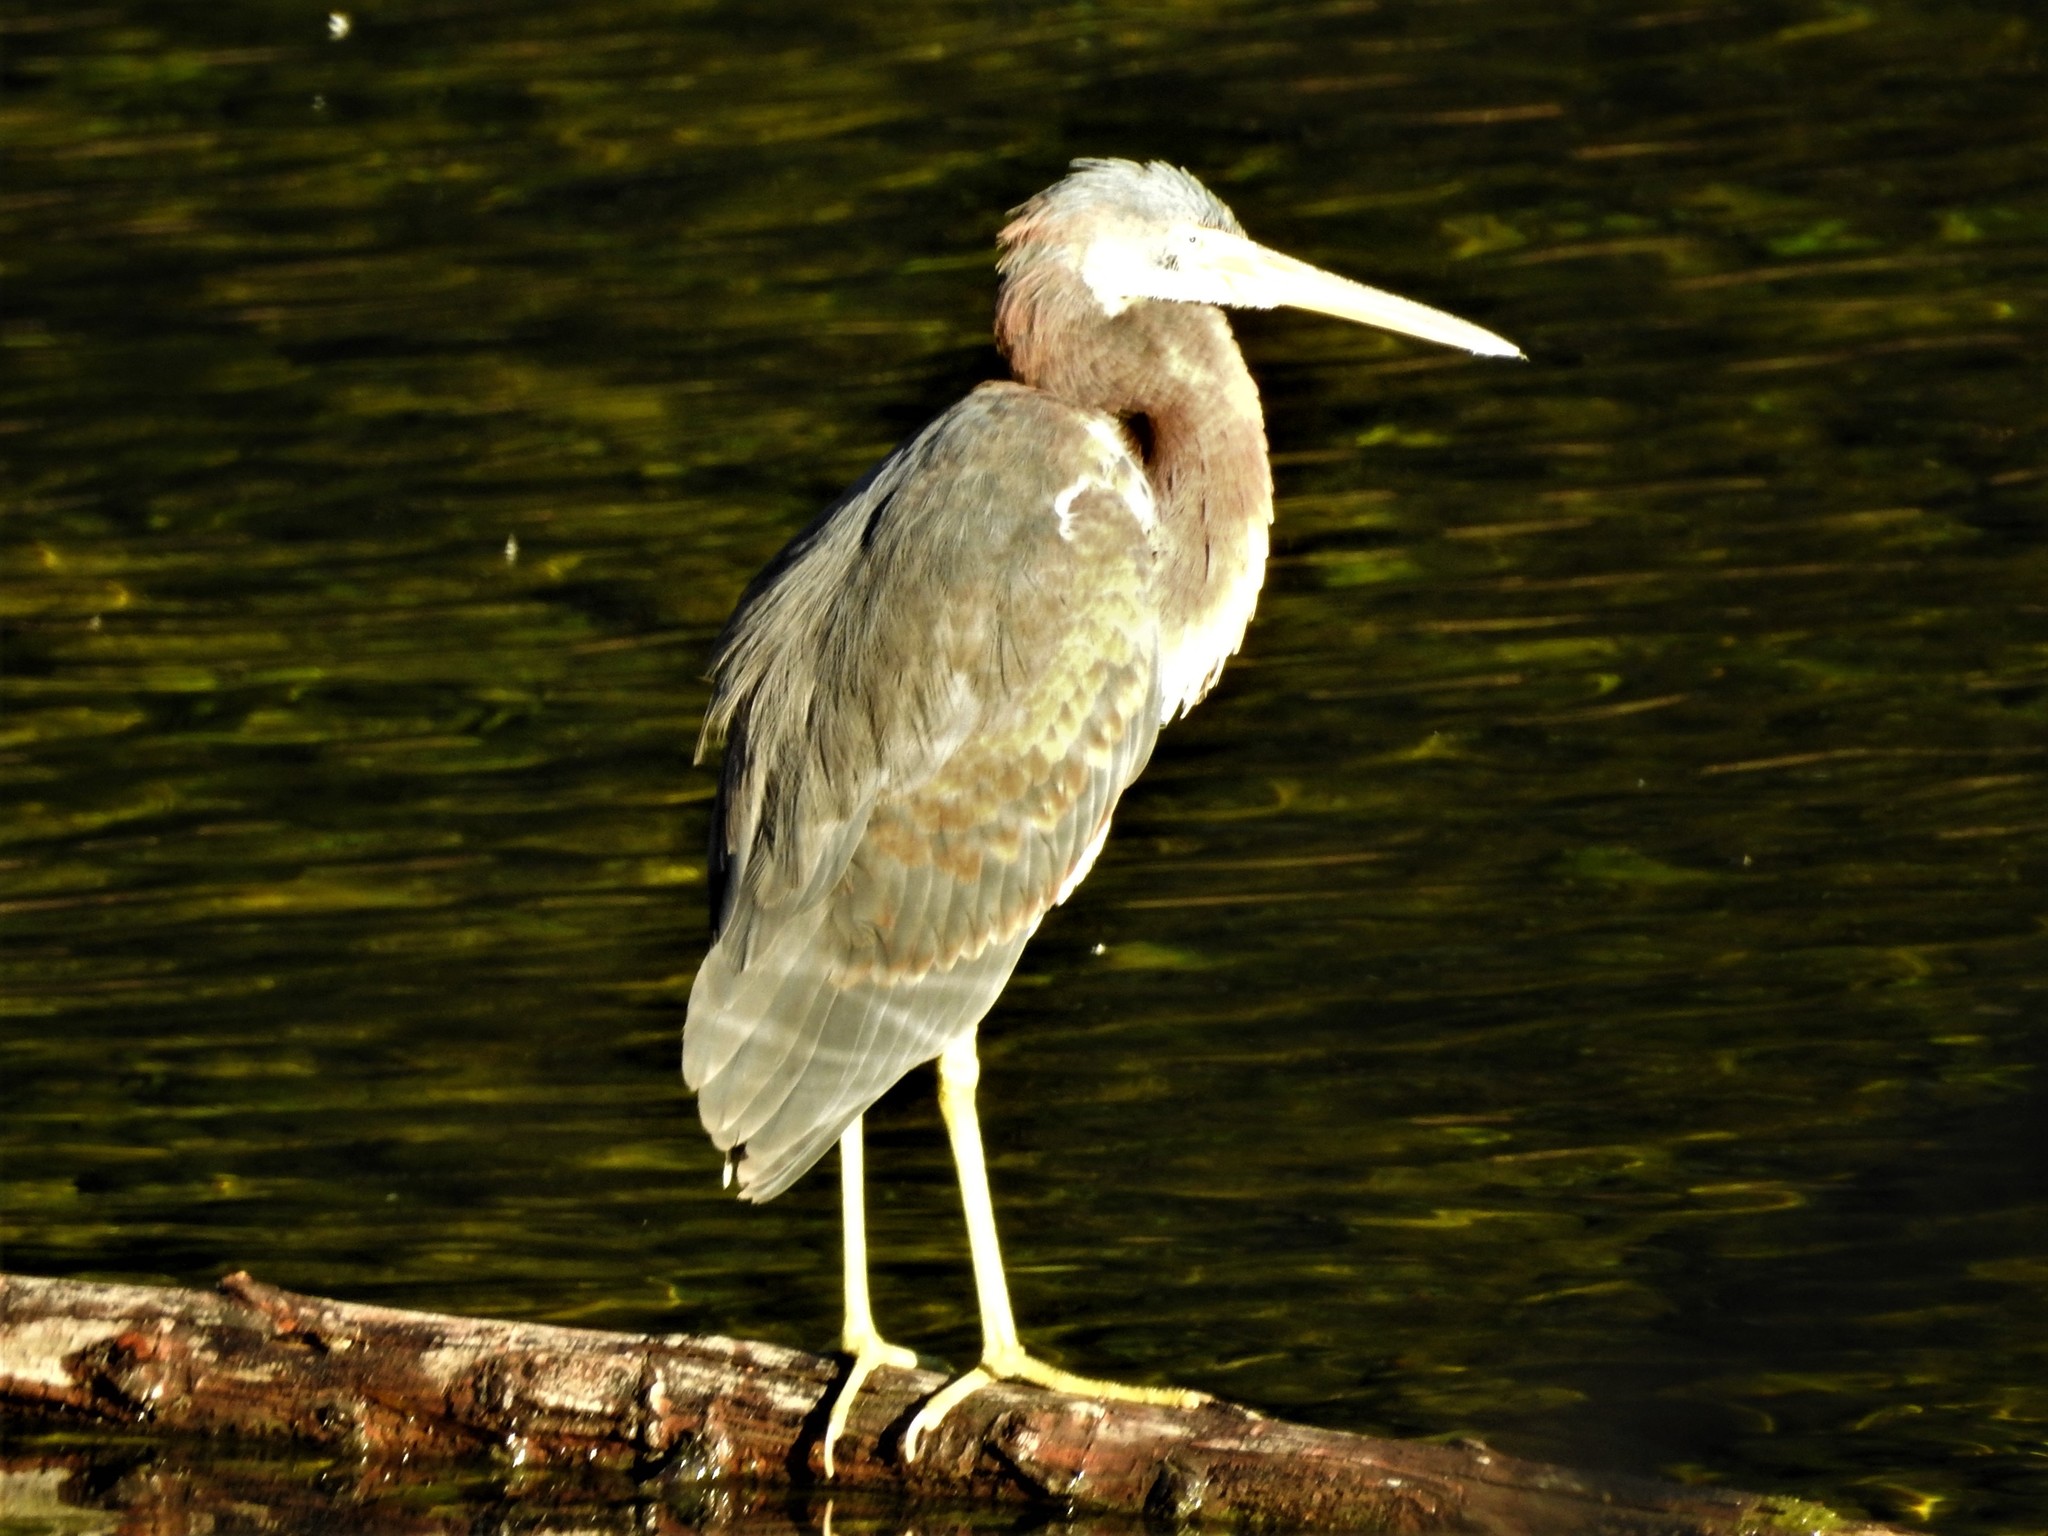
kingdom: Animalia
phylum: Chordata
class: Aves
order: Pelecaniformes
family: Ardeidae
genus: Egretta
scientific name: Egretta tricolor
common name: Tricolored heron
